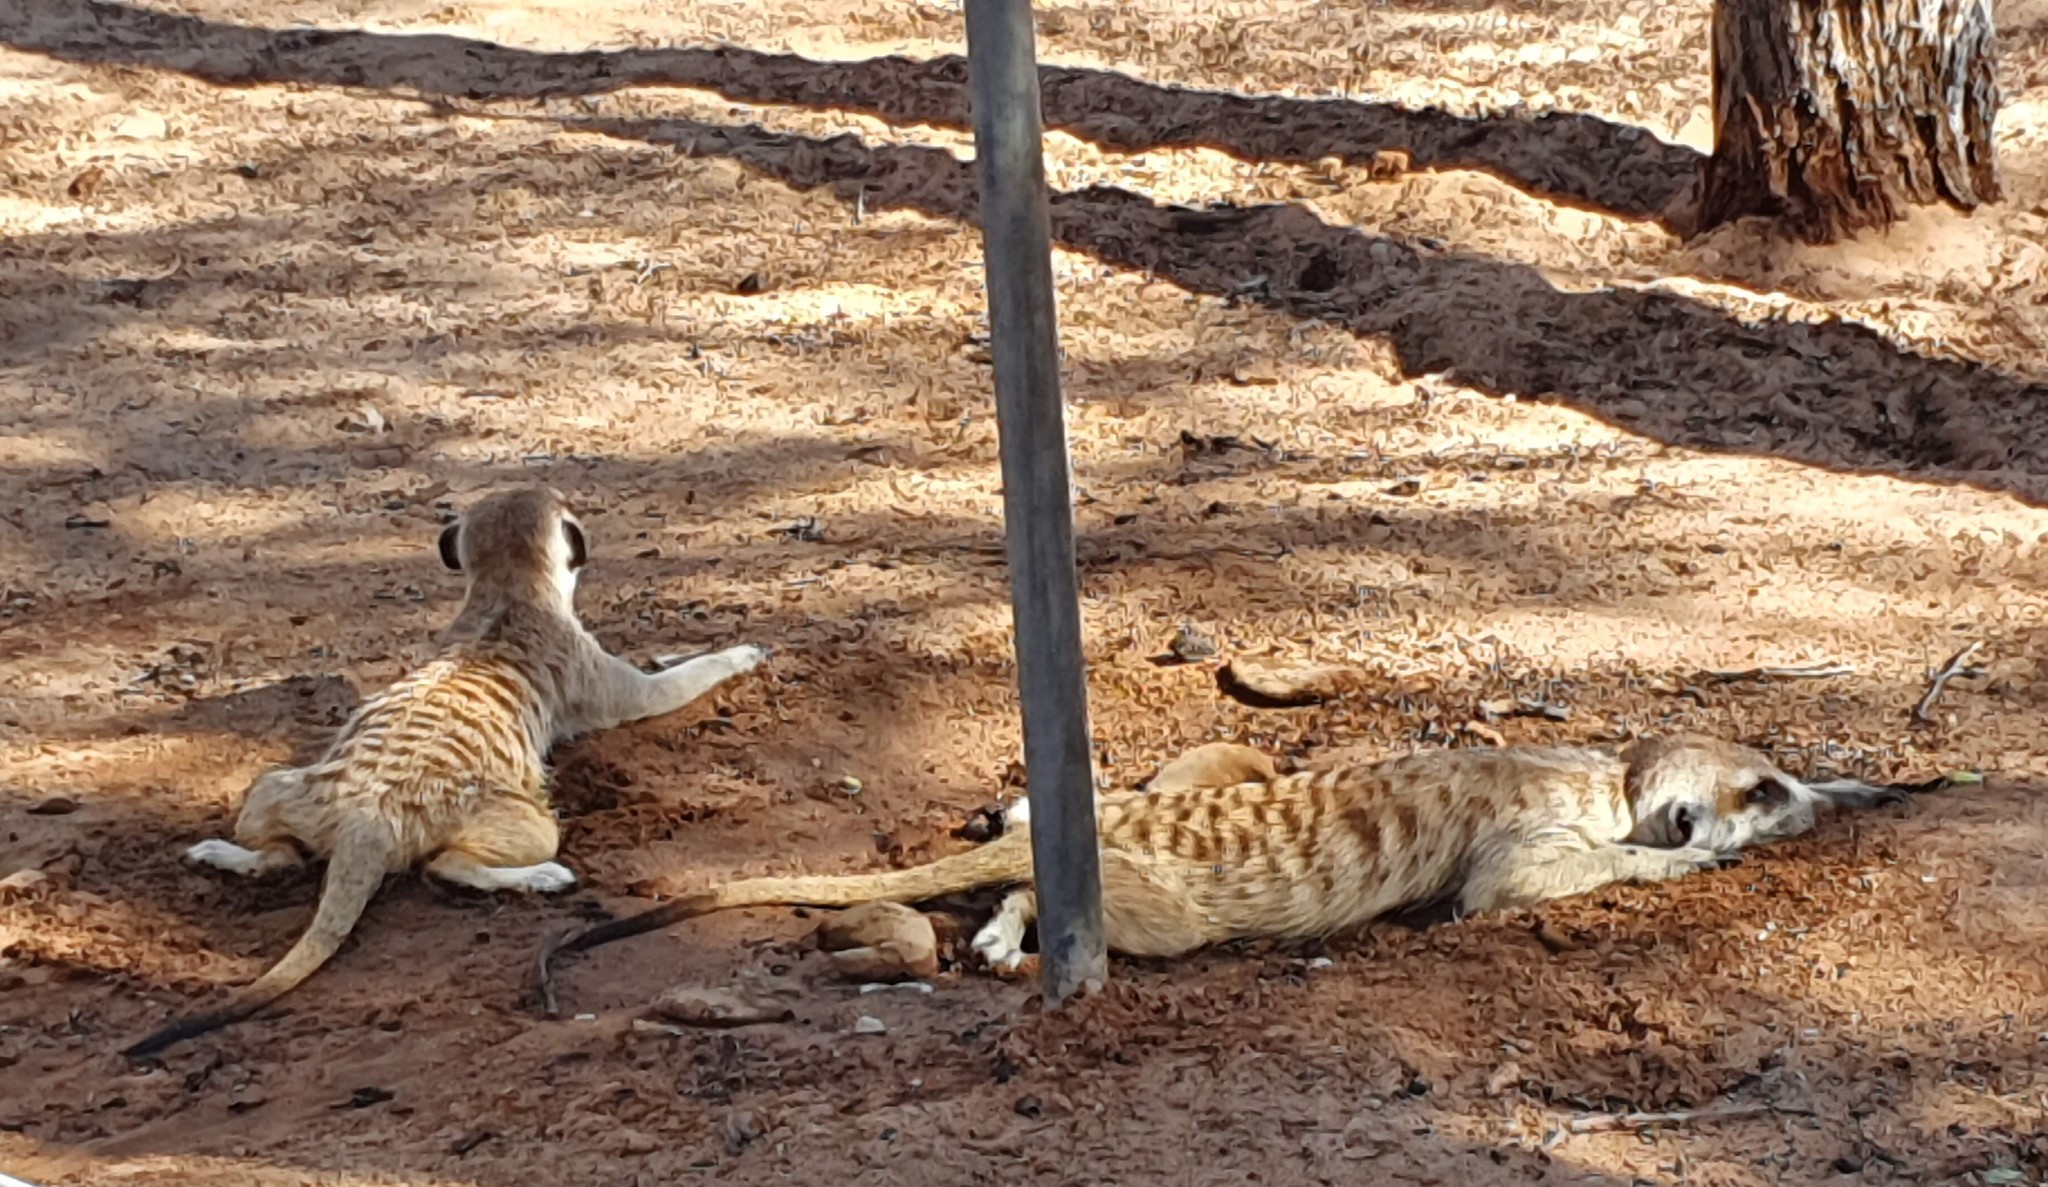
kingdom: Animalia
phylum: Chordata
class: Mammalia
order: Carnivora
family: Herpestidae
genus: Suricata
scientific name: Suricata suricatta
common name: Meerkat
